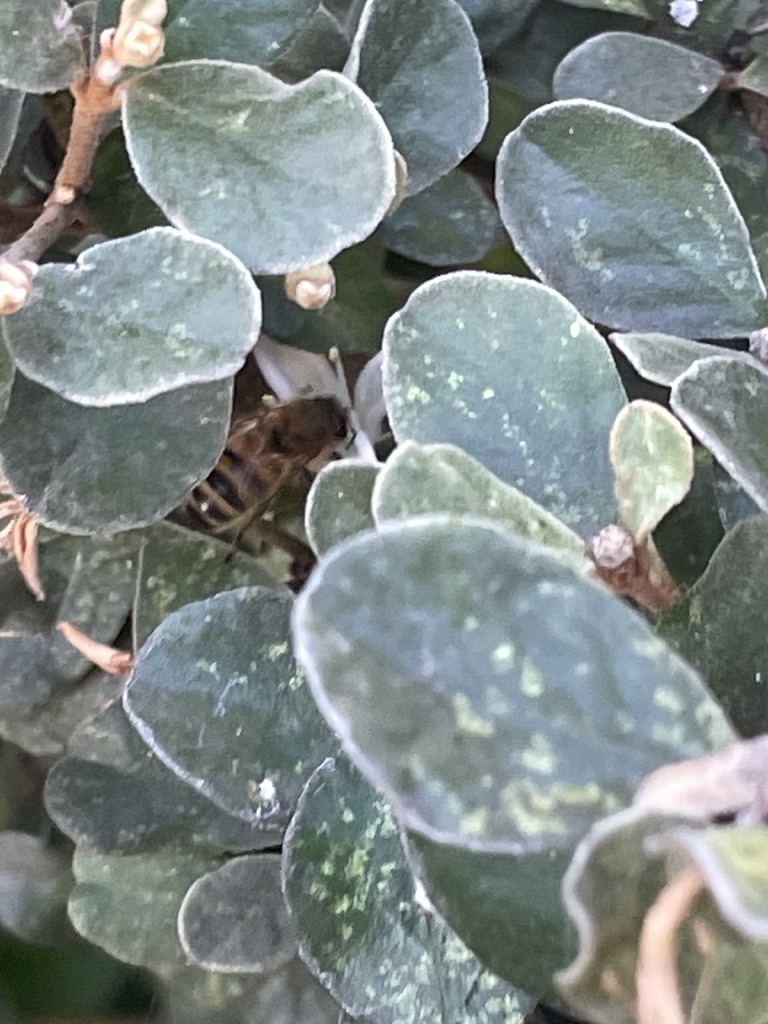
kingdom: Animalia
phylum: Arthropoda
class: Insecta
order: Hymenoptera
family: Apidae
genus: Apis
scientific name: Apis mellifera
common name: Honey bee
